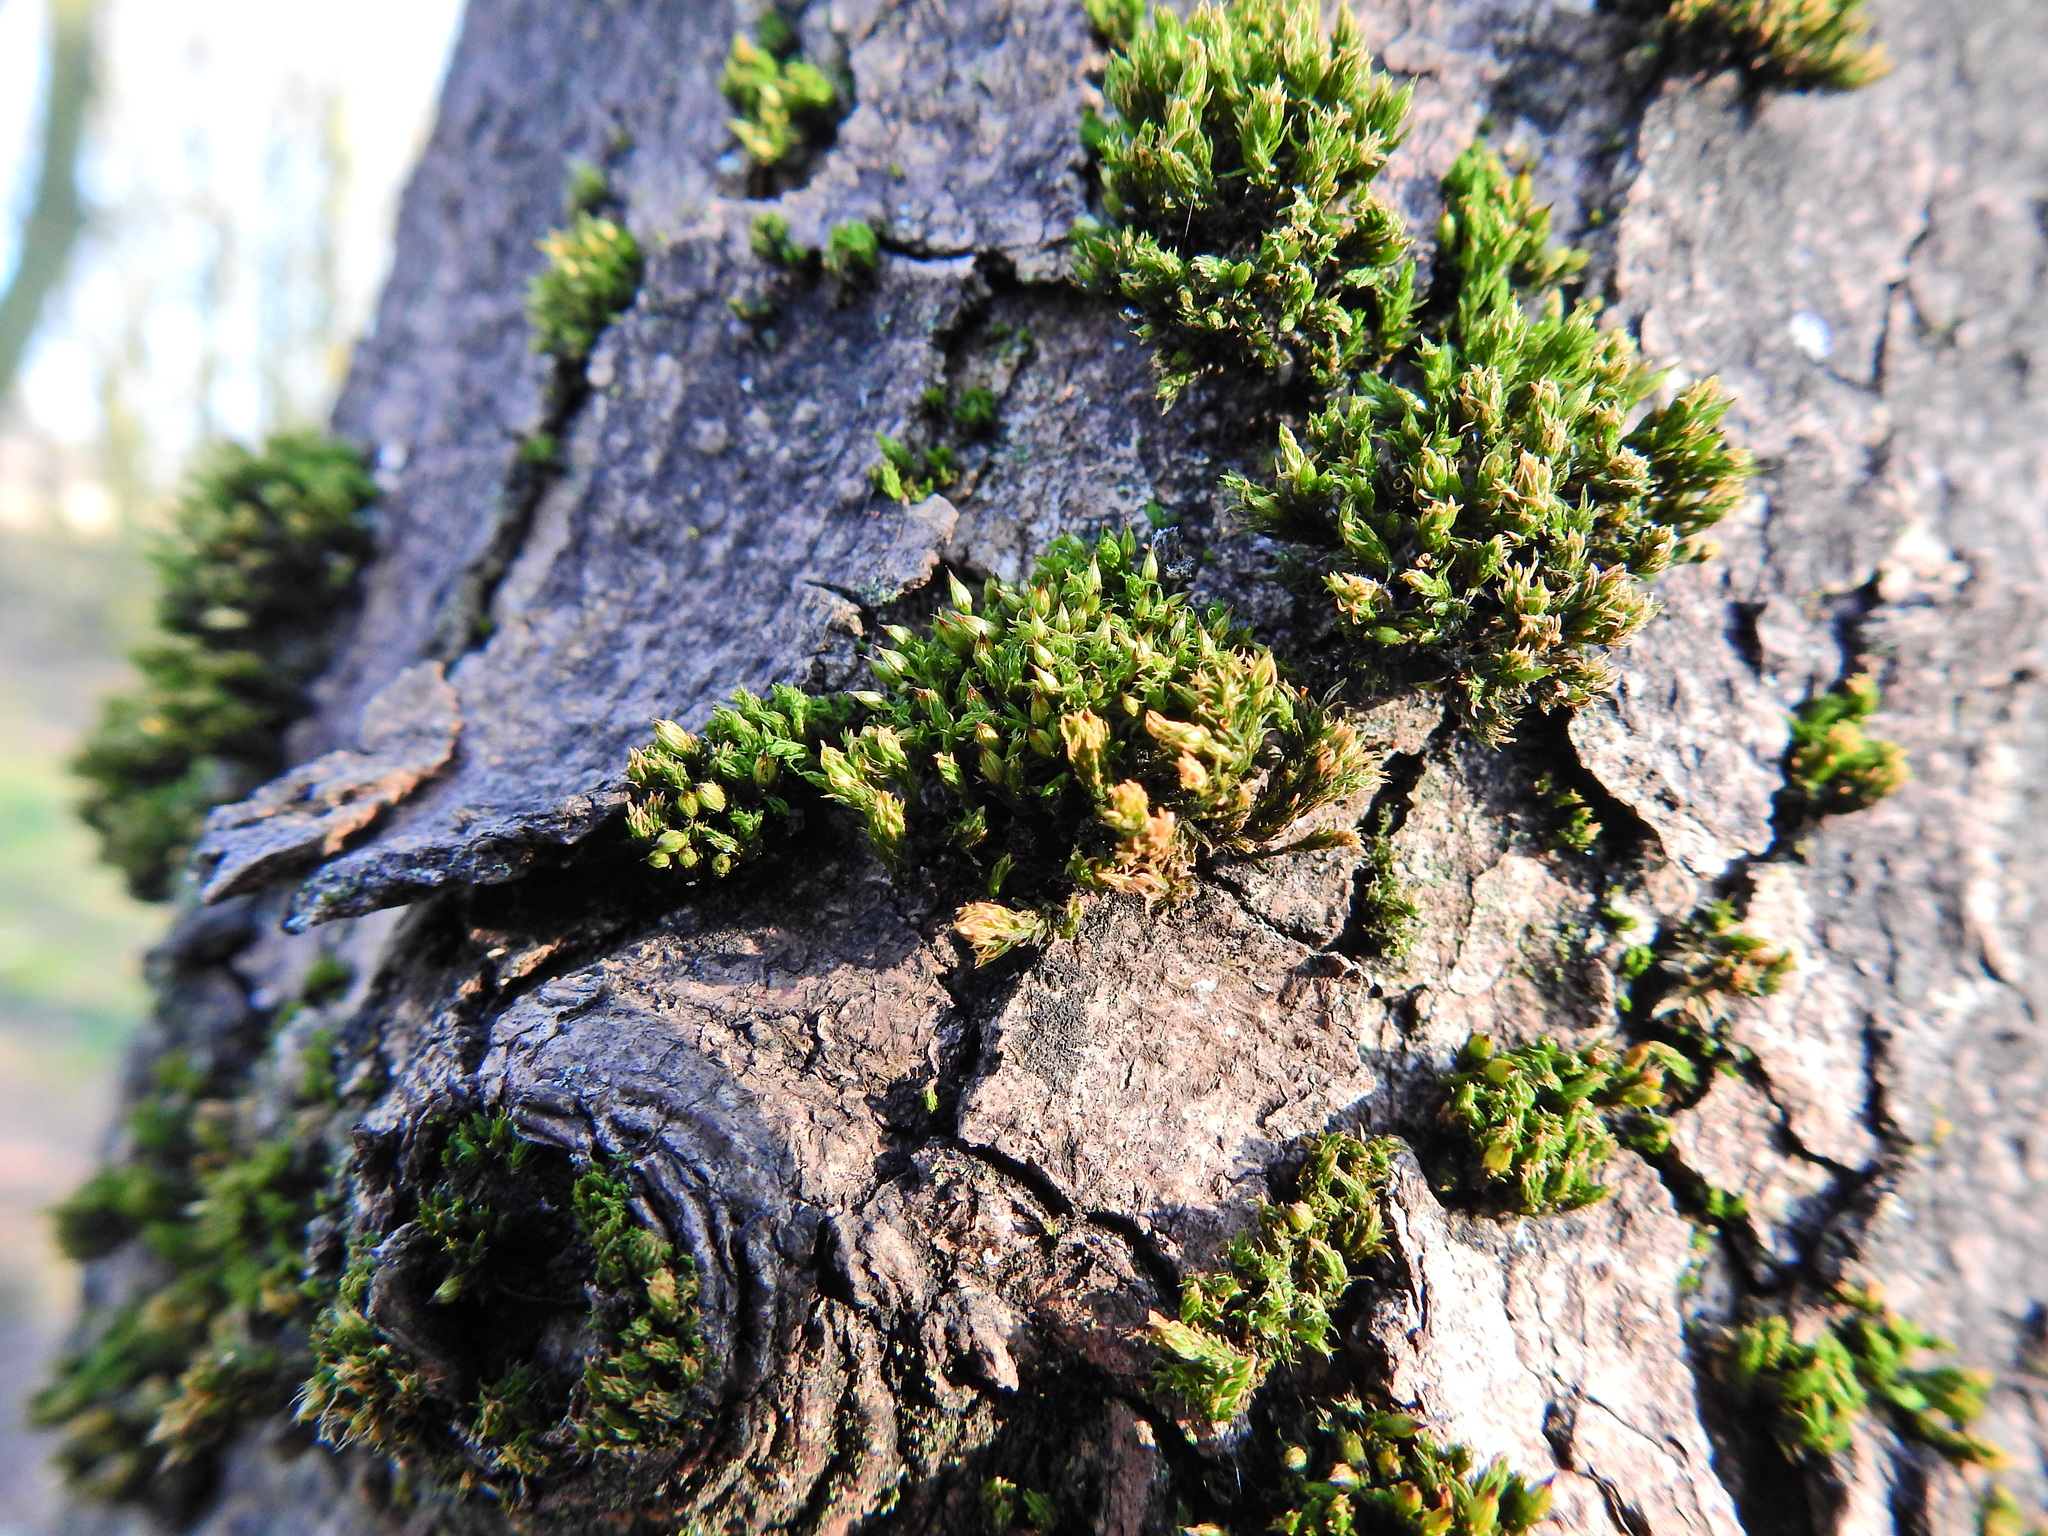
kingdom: Plantae
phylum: Bryophyta
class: Bryopsida
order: Orthotrichales
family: Orthotrichaceae
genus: Lewinskya
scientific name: Lewinskya affinis
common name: Wood bristle-moss
